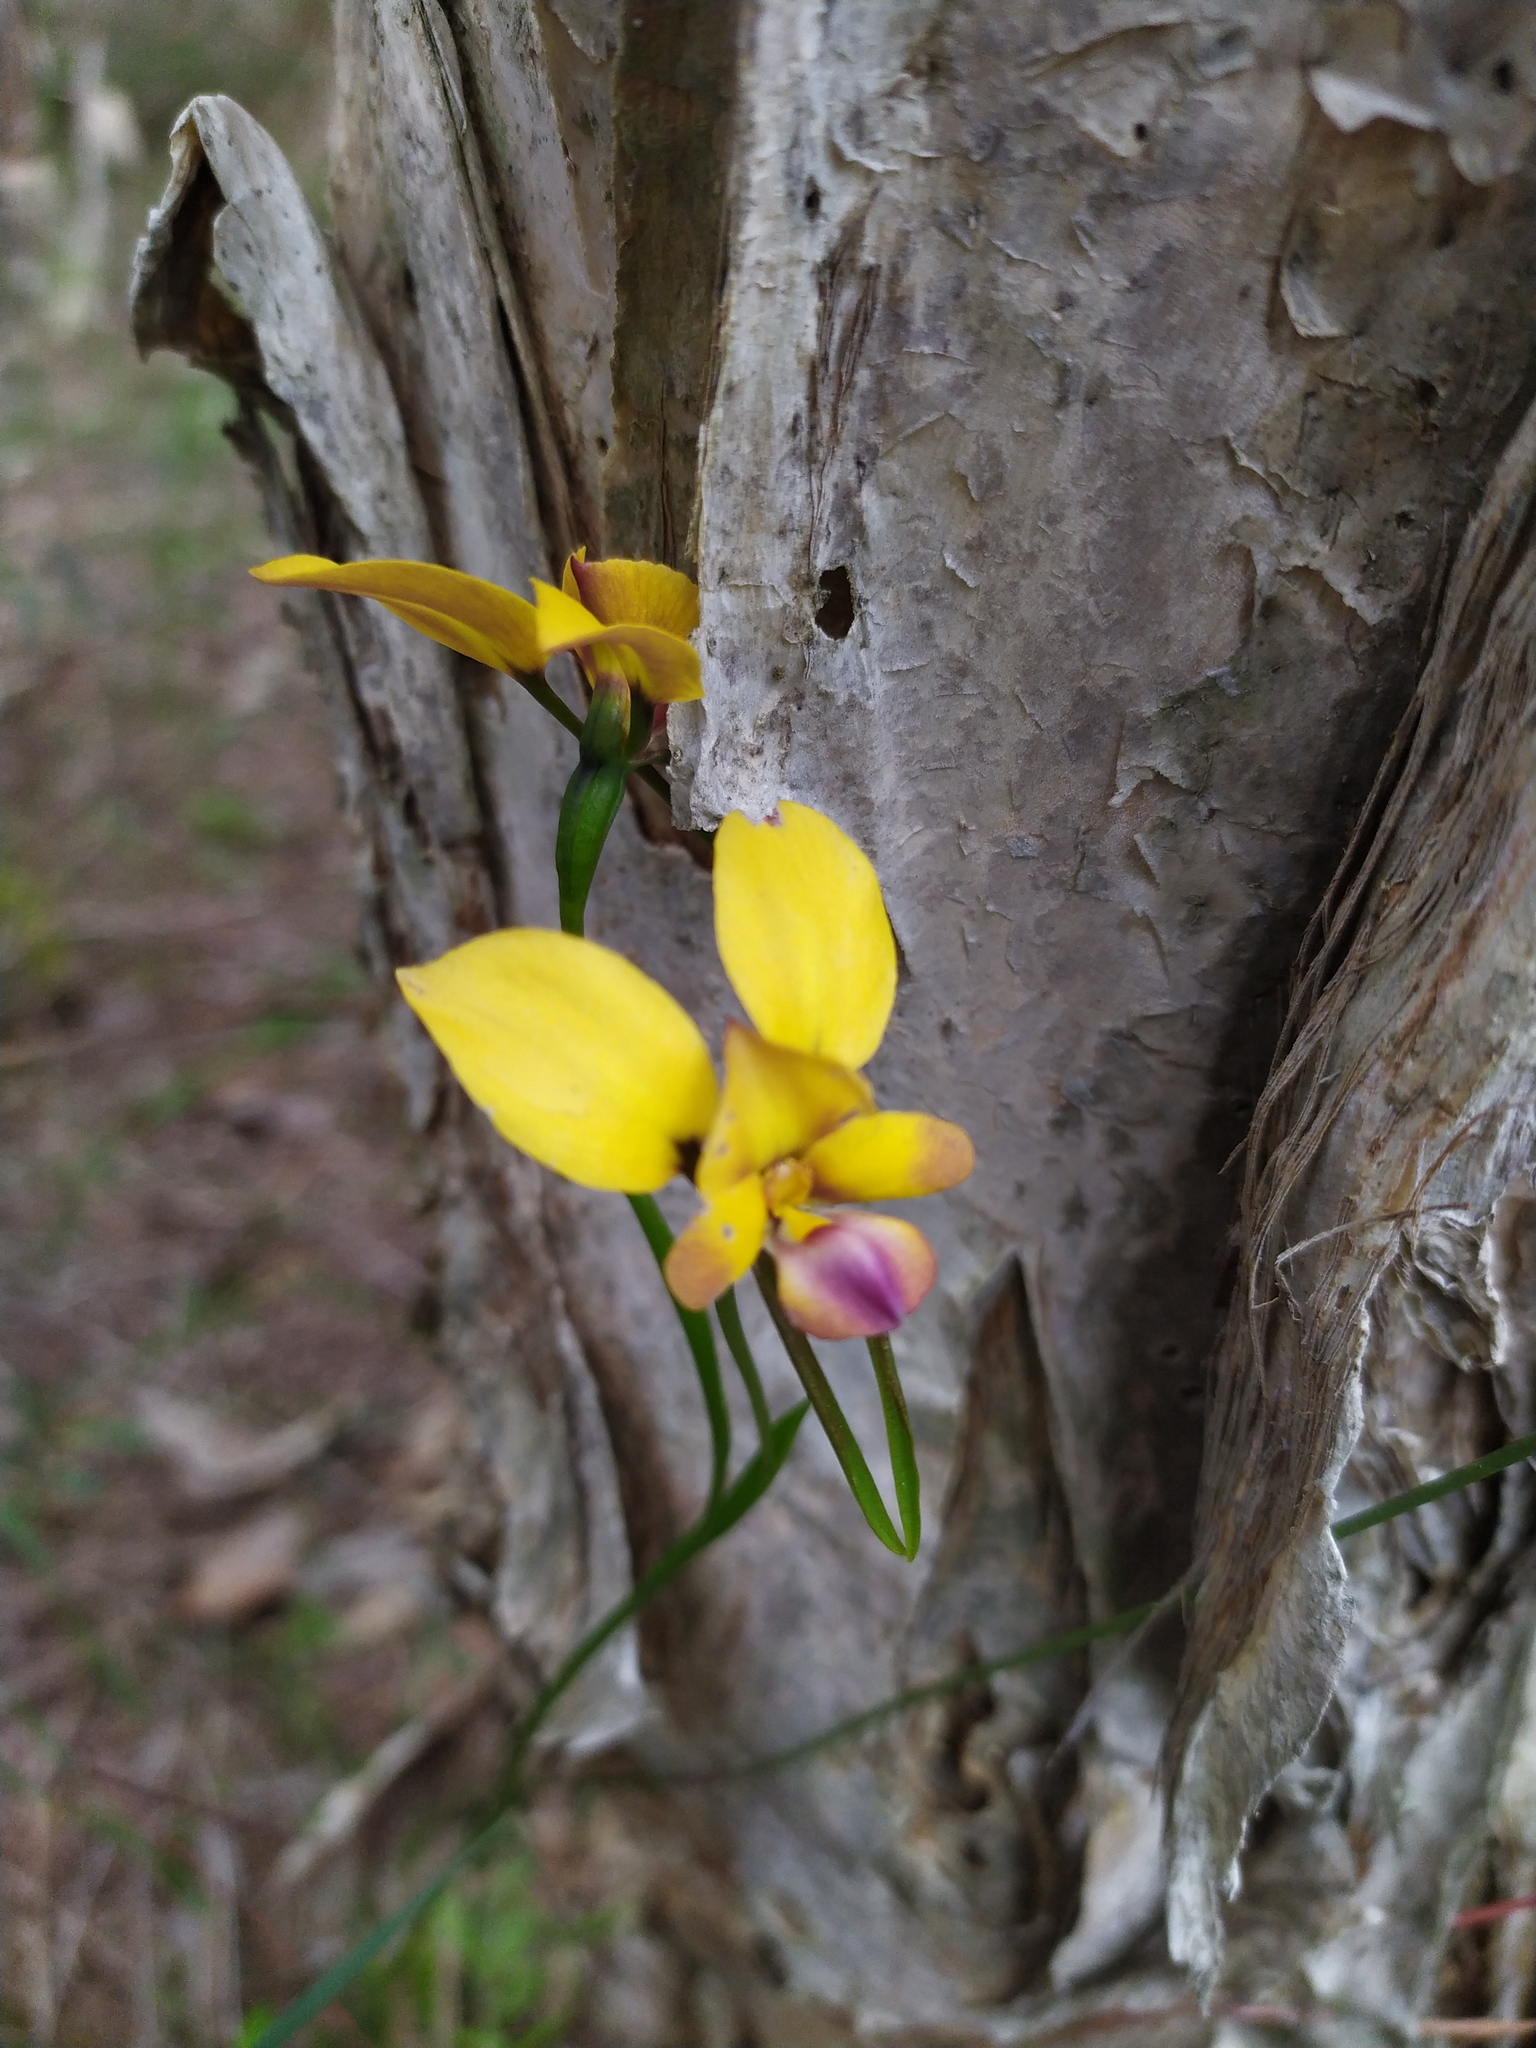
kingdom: Plantae
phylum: Tracheophyta
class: Liliopsida
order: Asparagales
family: Orchidaceae
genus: Diuris
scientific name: Diuris magnifica
